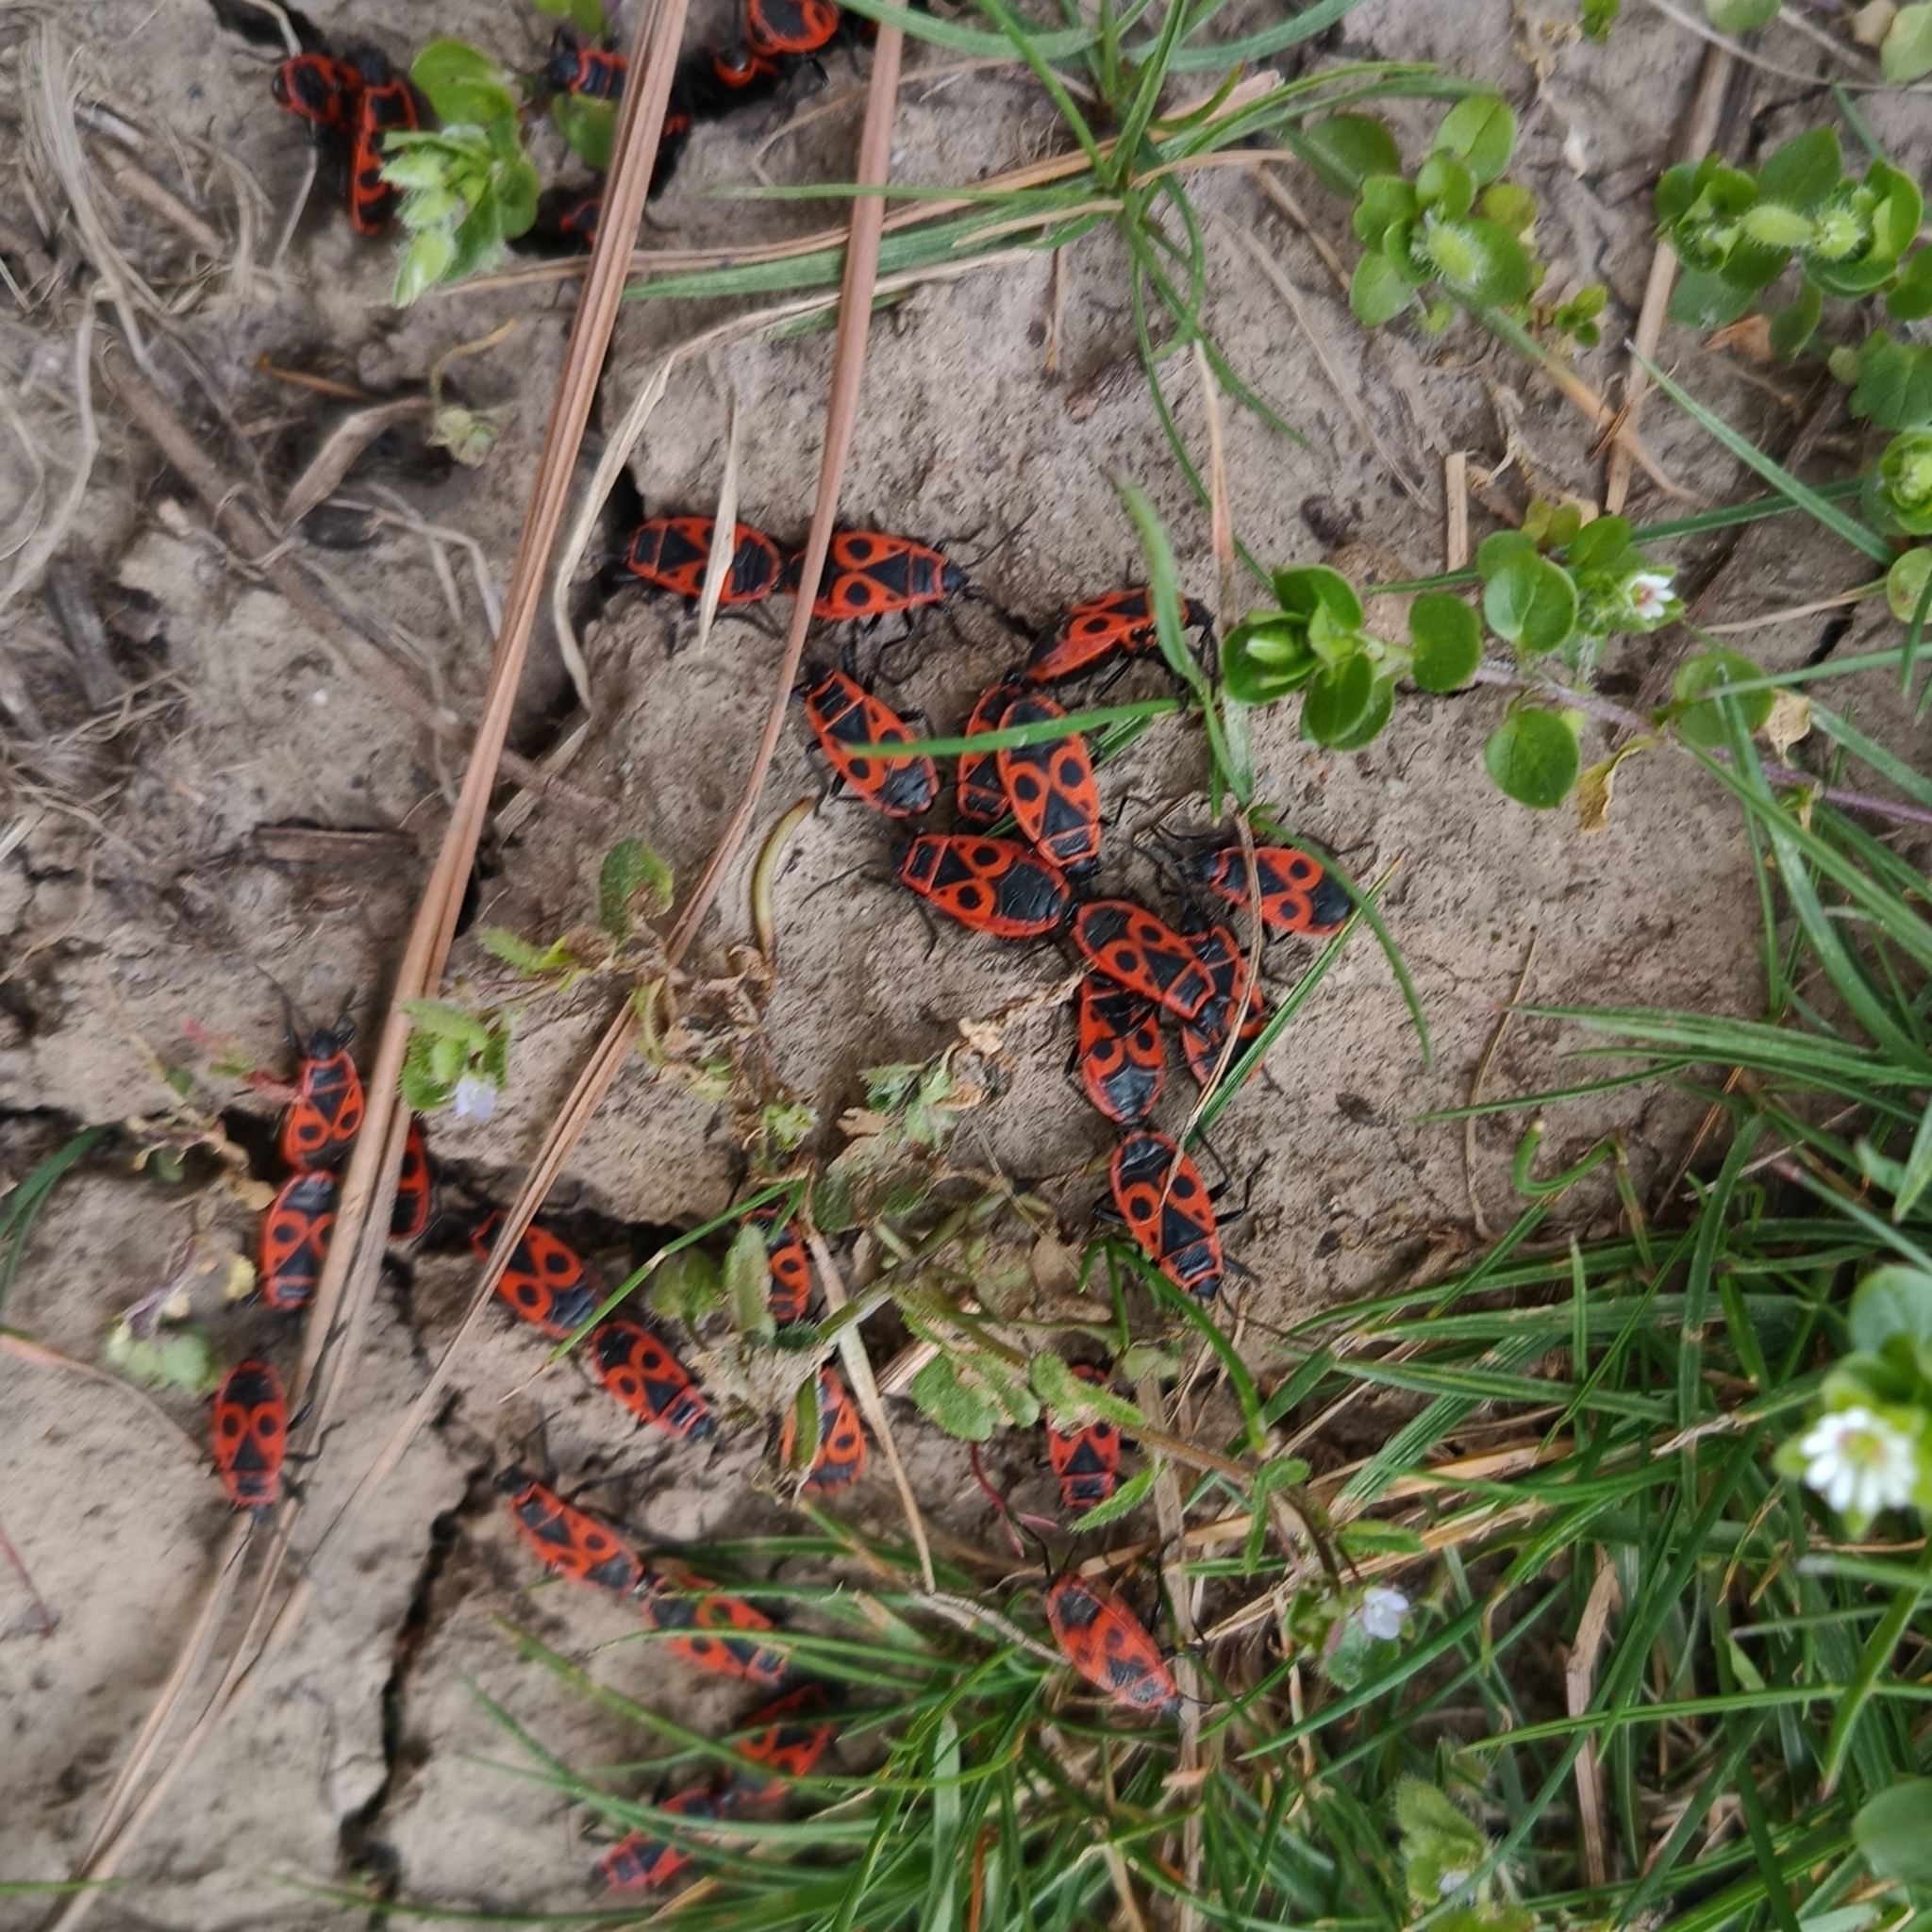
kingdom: Animalia
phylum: Arthropoda
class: Insecta
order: Hemiptera
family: Pyrrhocoridae
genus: Pyrrhocoris
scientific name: Pyrrhocoris apterus
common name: Firebug
